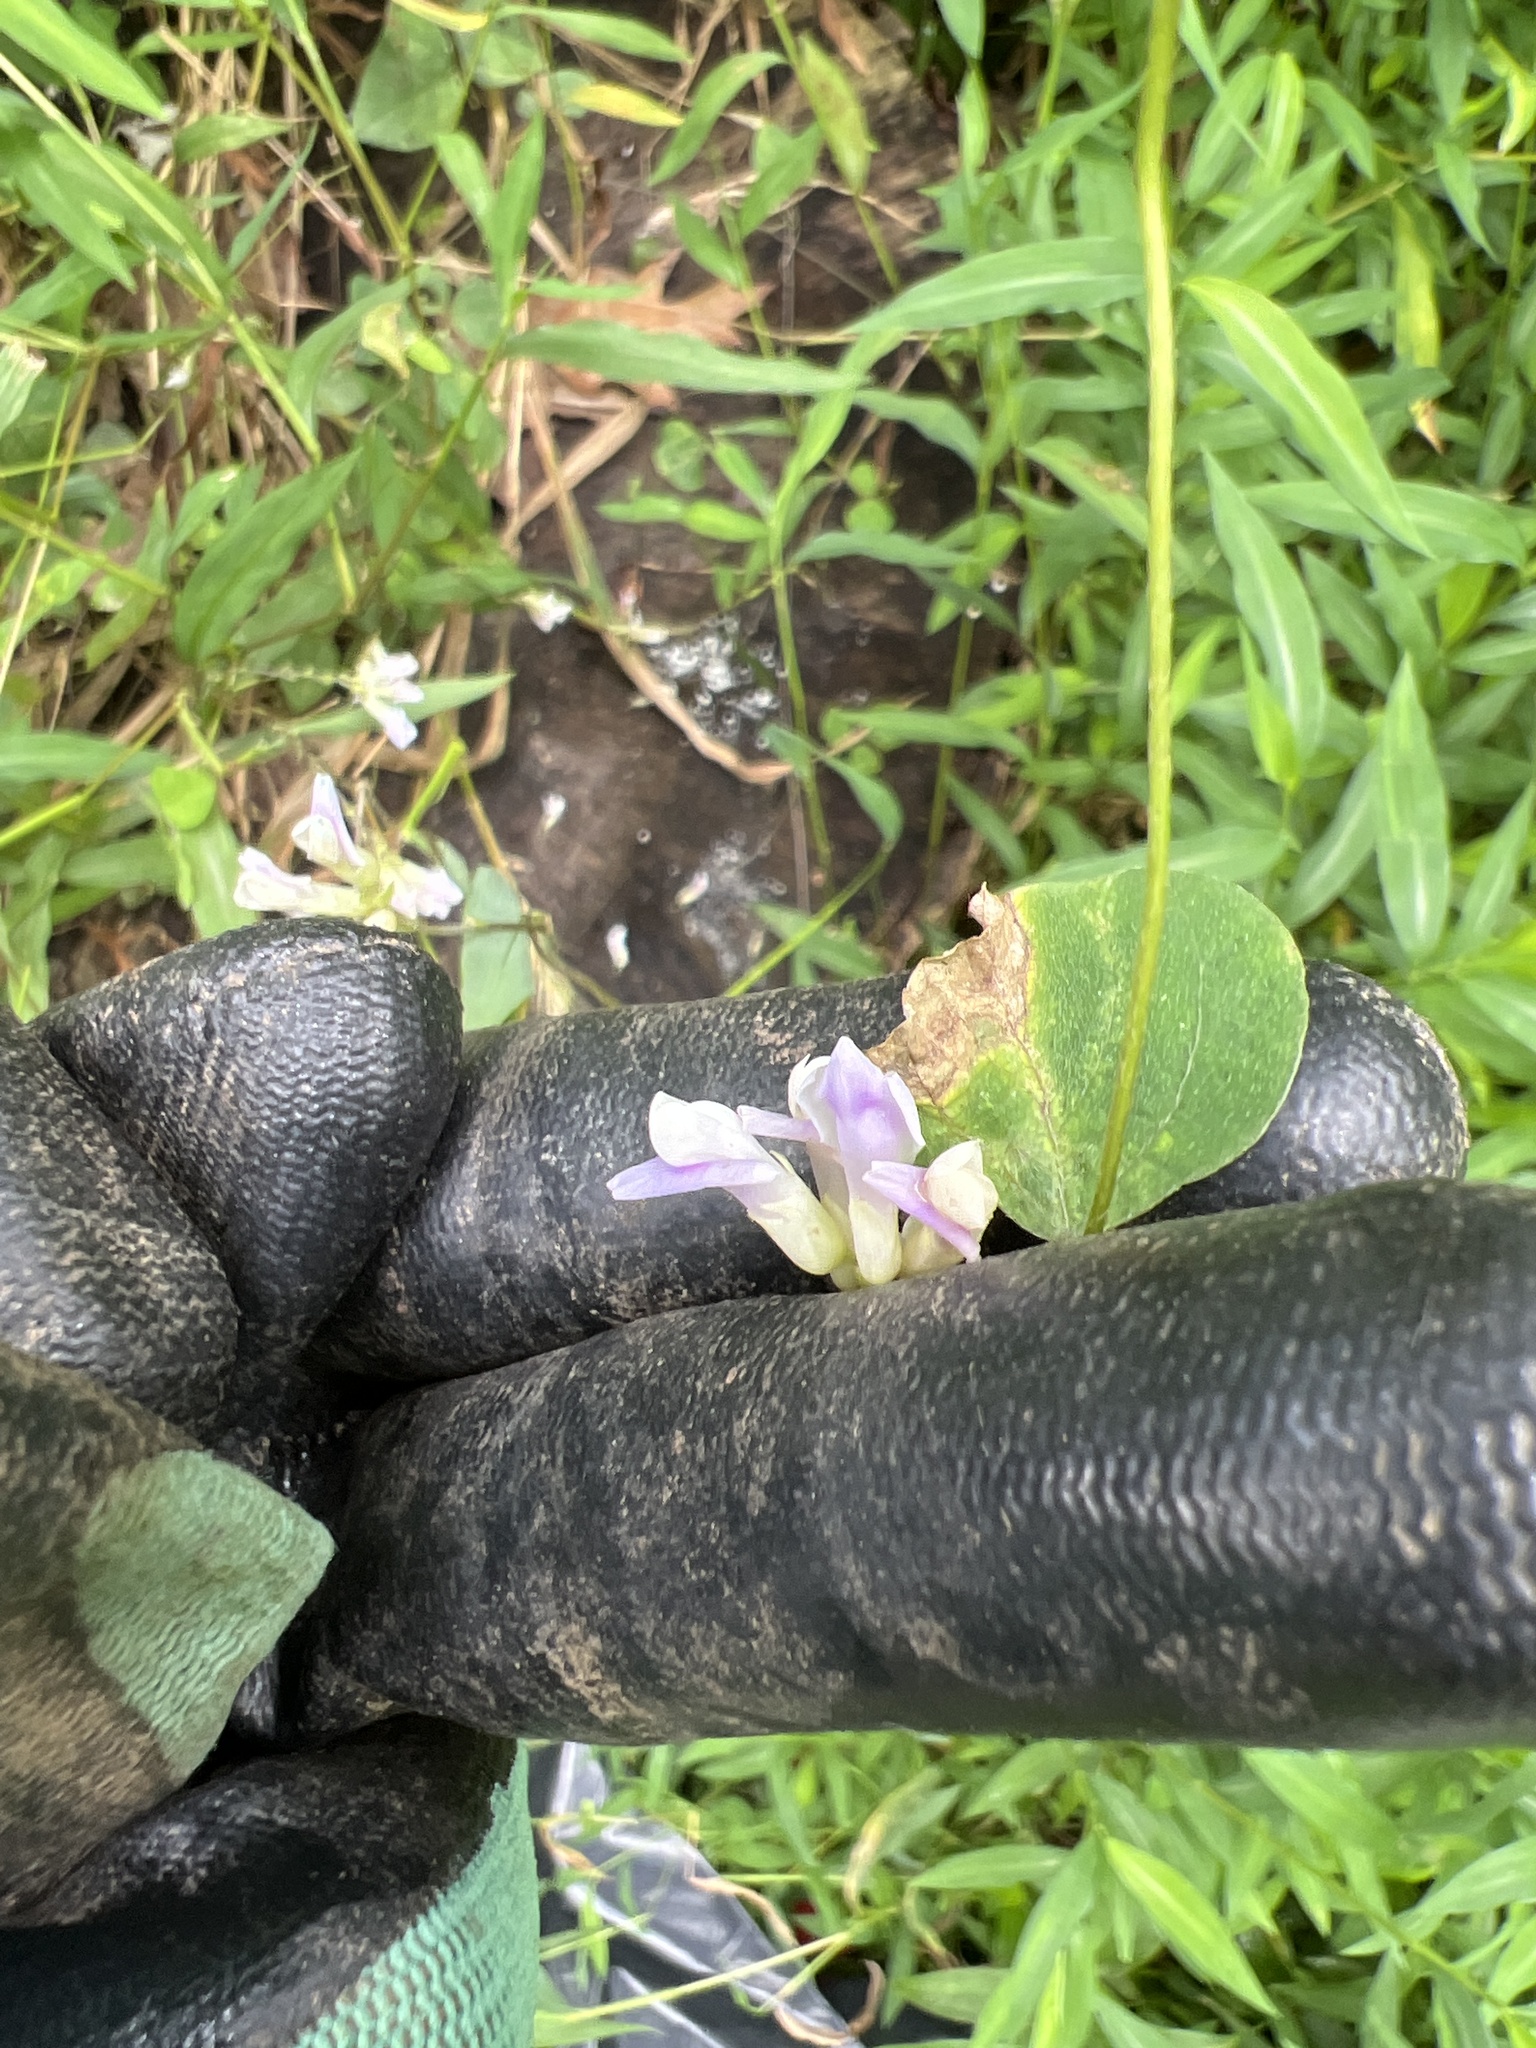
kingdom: Plantae
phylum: Tracheophyta
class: Magnoliopsida
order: Fabales
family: Fabaceae
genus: Amphicarpaea
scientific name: Amphicarpaea bracteata
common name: American hog peanut
